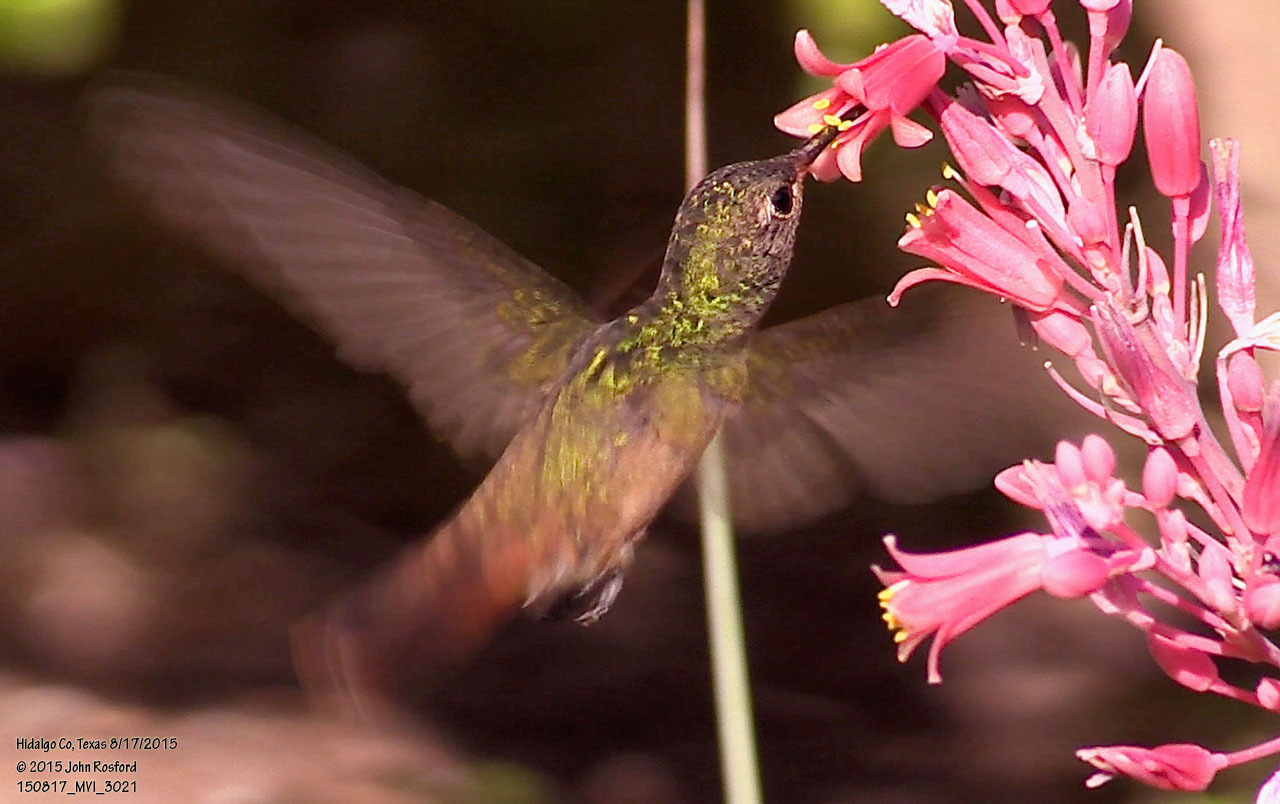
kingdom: Animalia
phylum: Chordata
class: Aves
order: Apodiformes
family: Trochilidae
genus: Amazilia
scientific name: Amazilia yucatanensis
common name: Buff-bellied hummingbird
